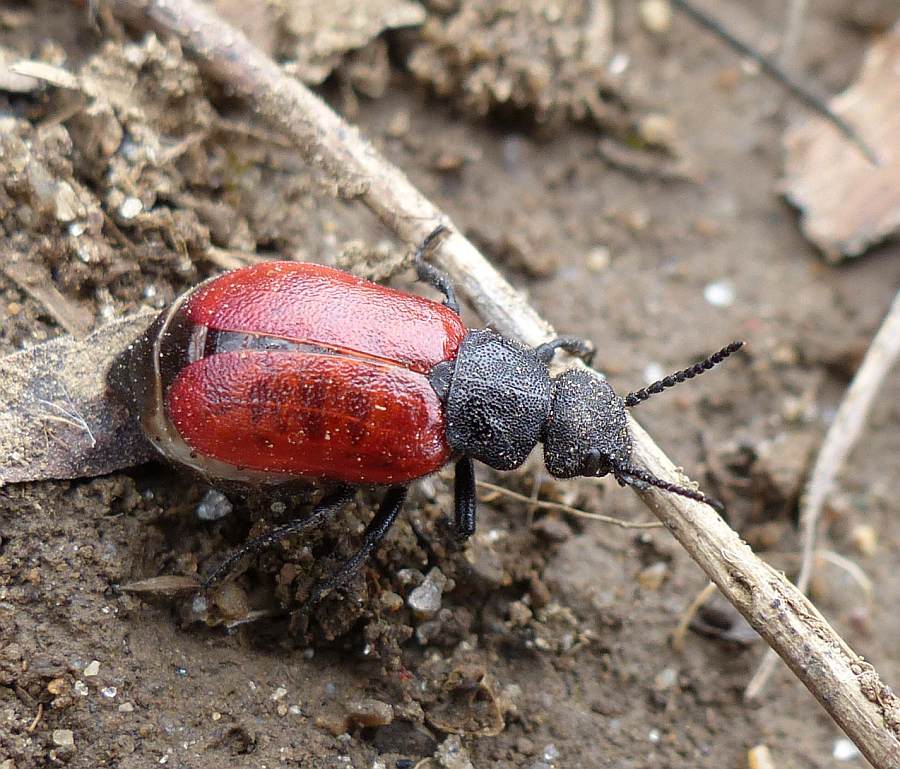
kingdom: Animalia
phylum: Arthropoda
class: Insecta
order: Coleoptera
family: Meloidae
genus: Tricrania
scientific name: Tricrania sanguinipennis
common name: Blood-winged blister beetle
